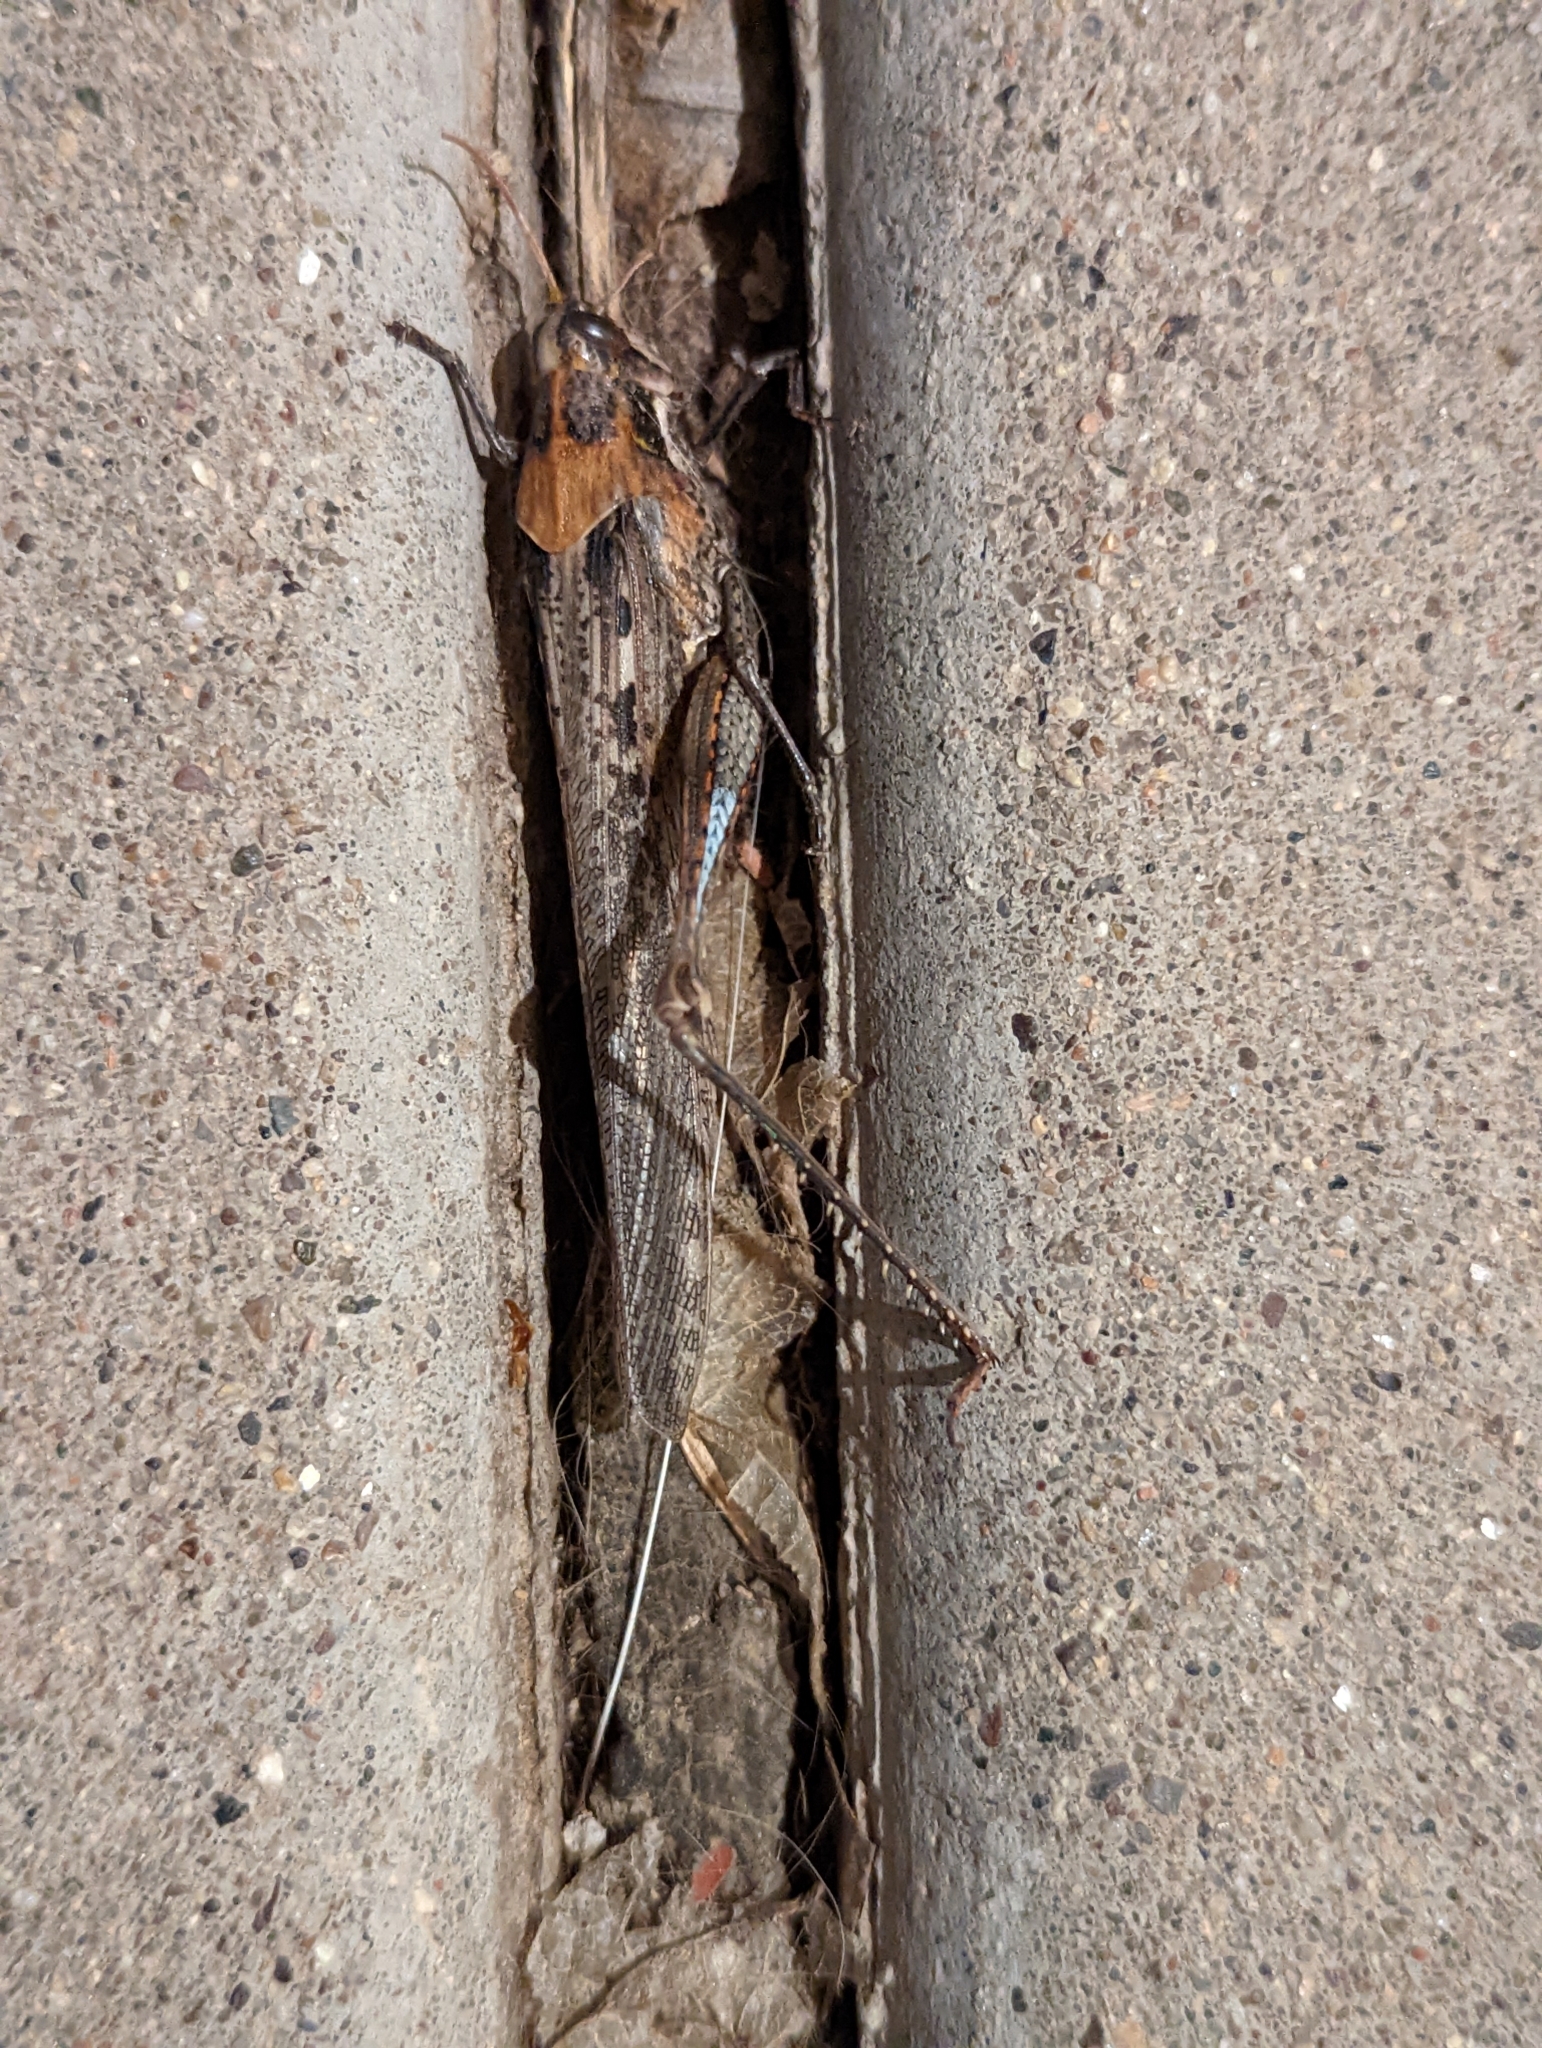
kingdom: Animalia
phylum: Arthropoda
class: Insecta
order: Orthoptera
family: Acrididae
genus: Schistocerca
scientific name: Schistocerca nitens
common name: Vagrant grasshopper
